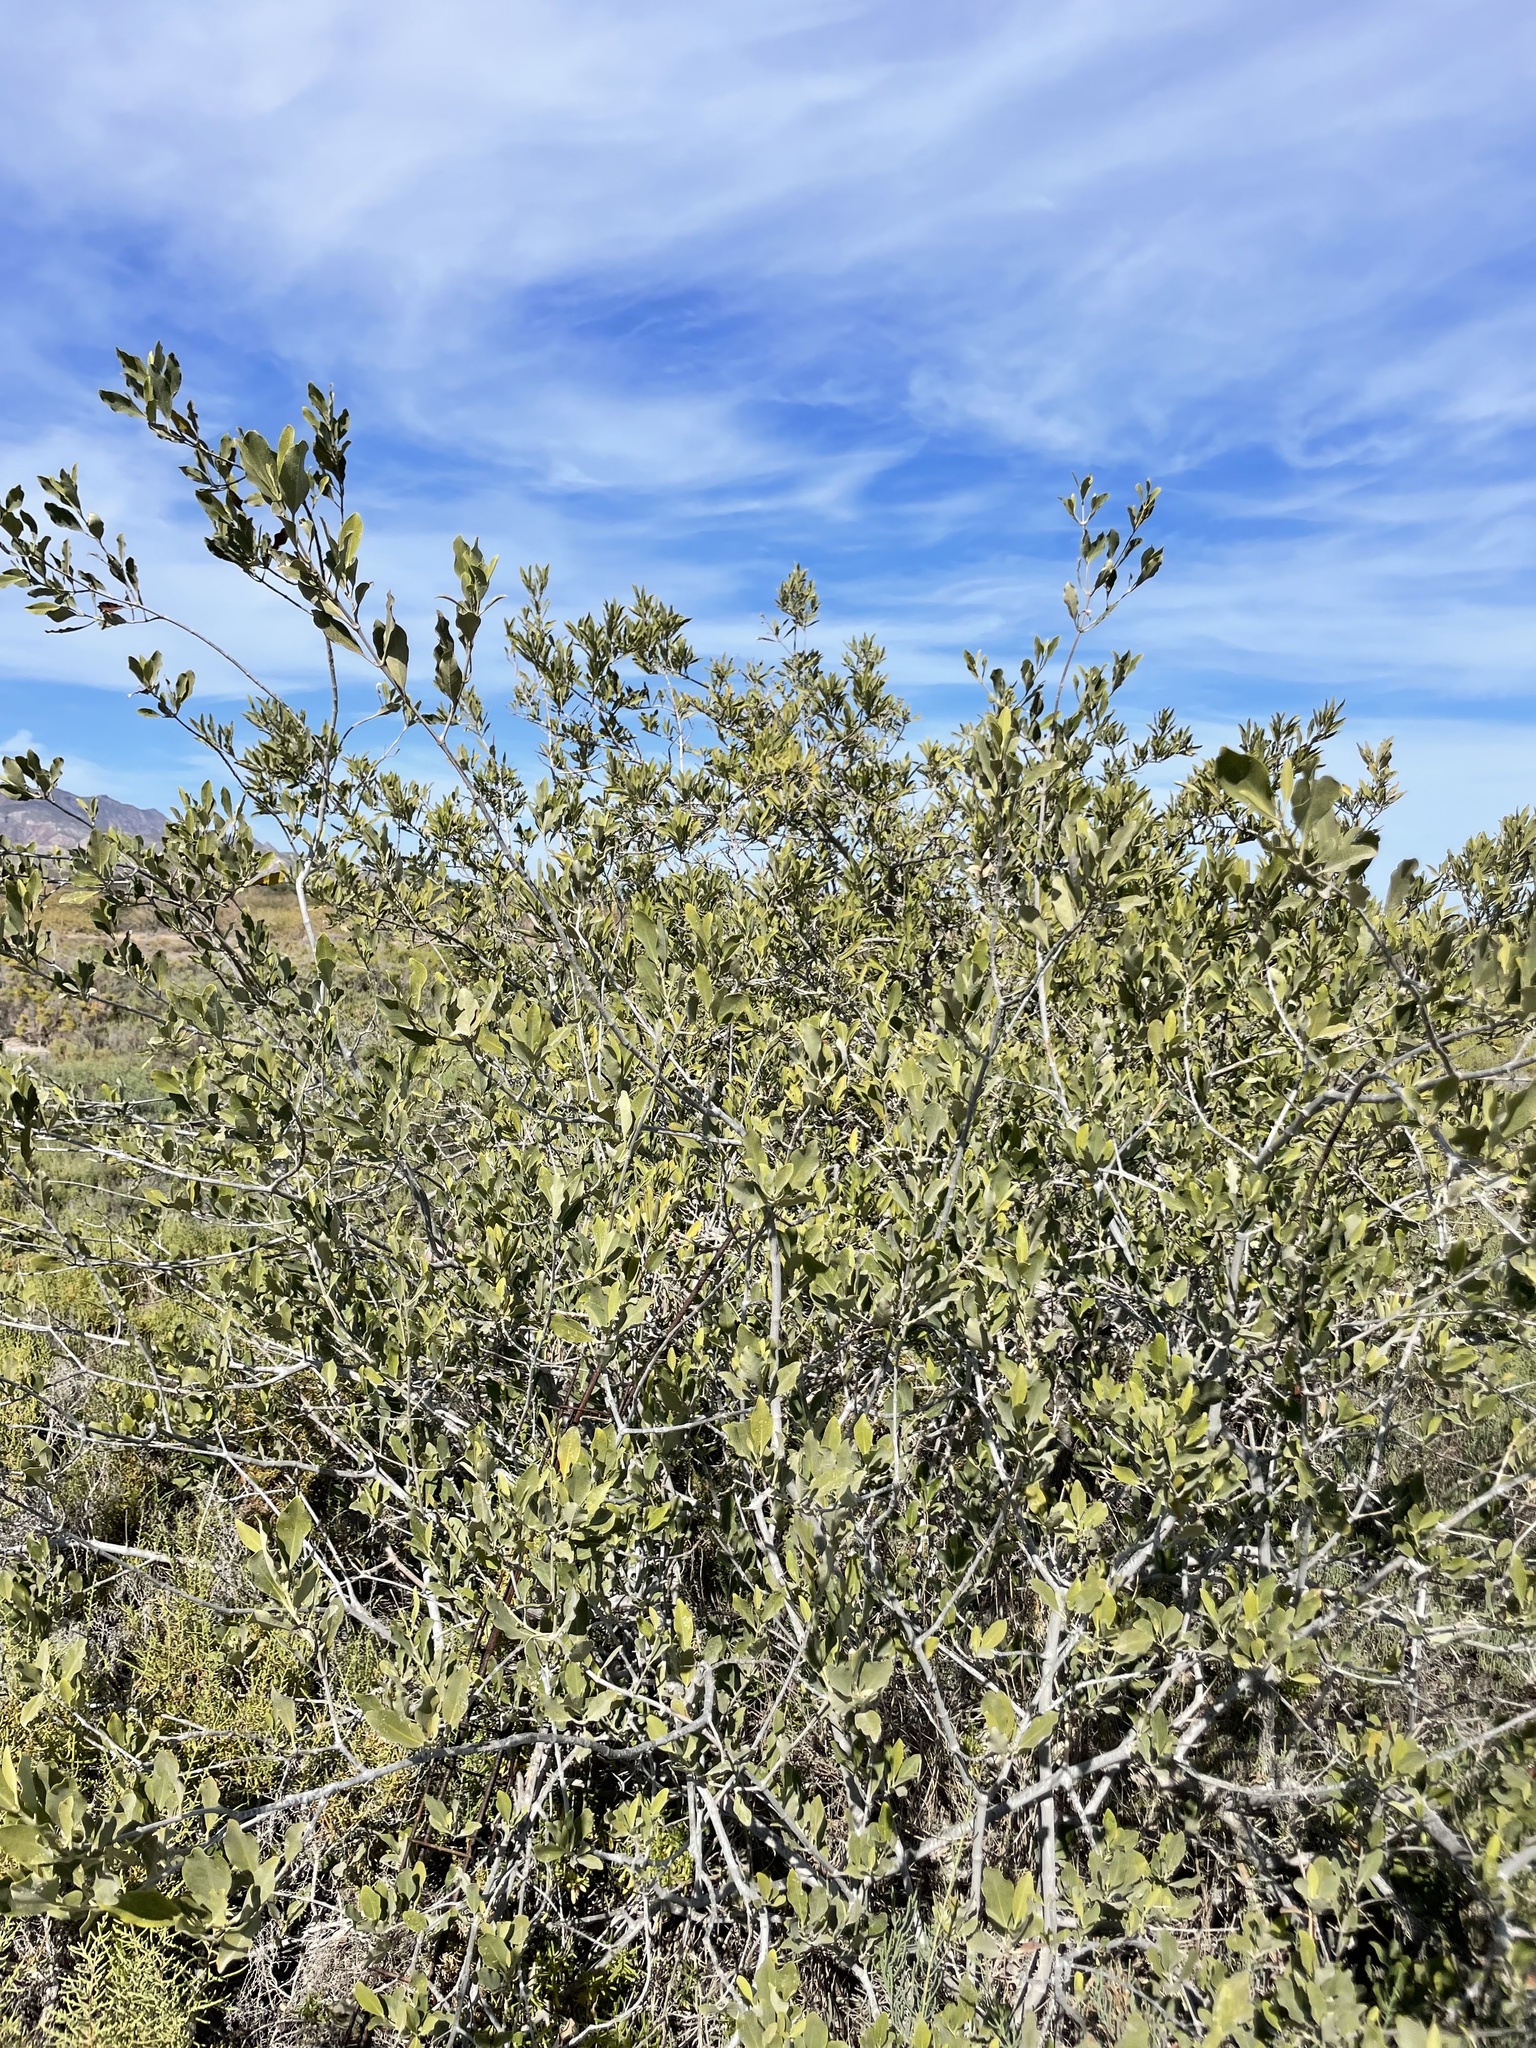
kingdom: Plantae
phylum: Tracheophyta
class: Magnoliopsida
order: Lamiales
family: Acanthaceae
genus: Avicennia
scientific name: Avicennia germinans
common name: Black mangrove
